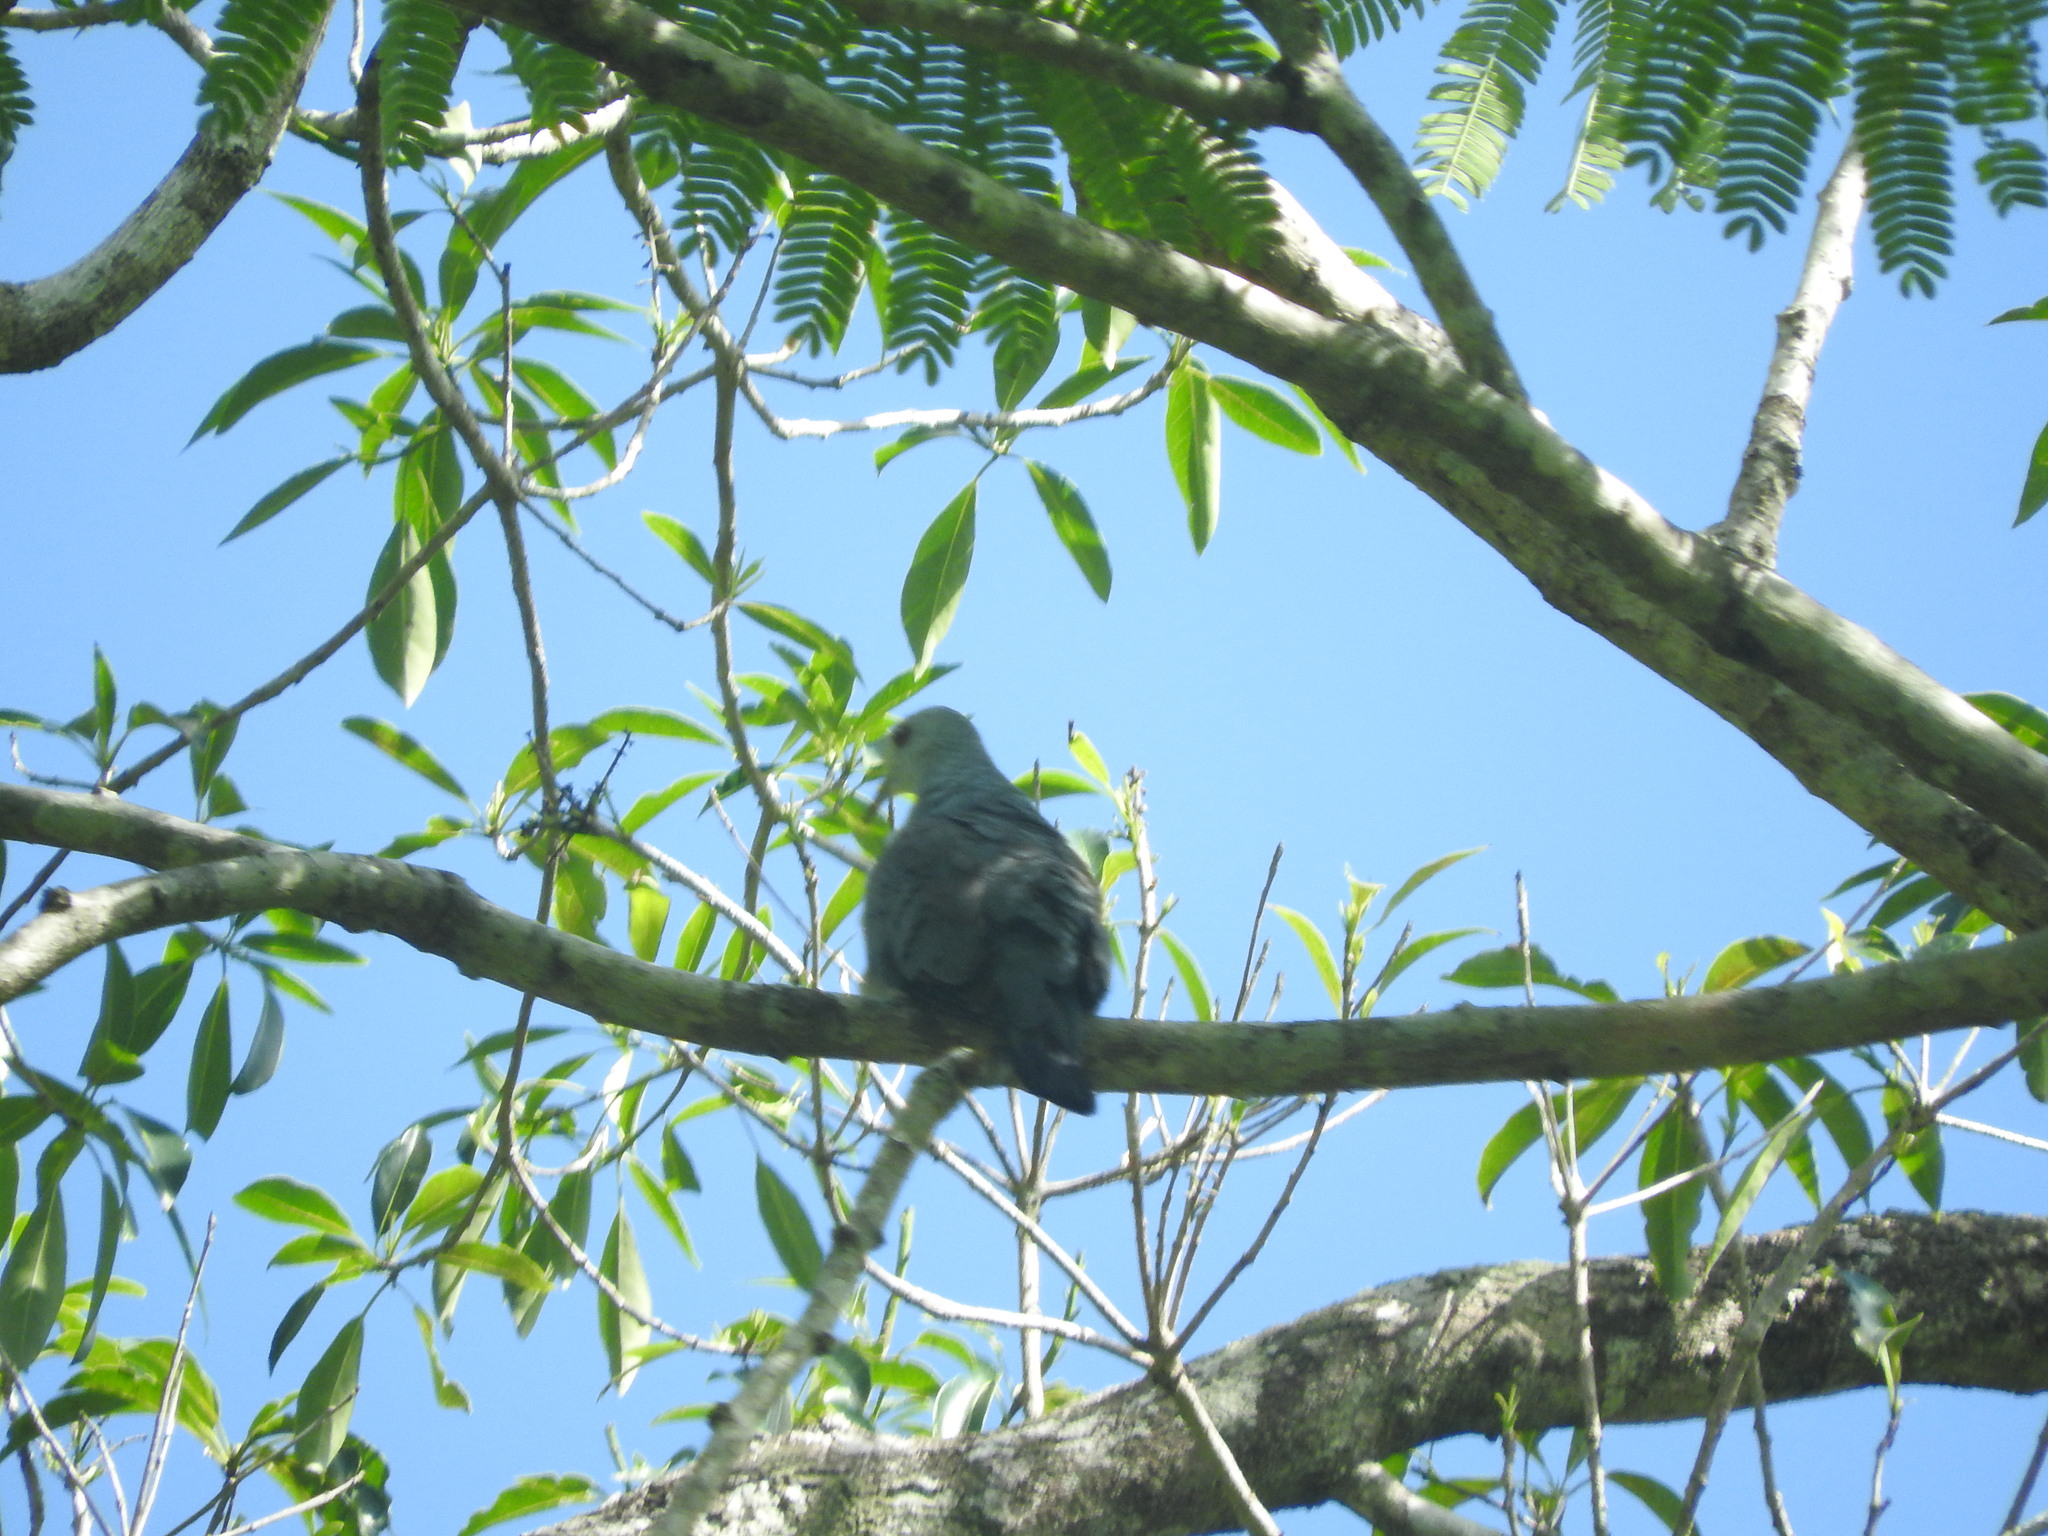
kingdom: Animalia
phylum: Chordata
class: Aves
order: Columbiformes
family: Columbidae
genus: Claravis
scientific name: Claravis pretiosa
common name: Blue ground-dove
